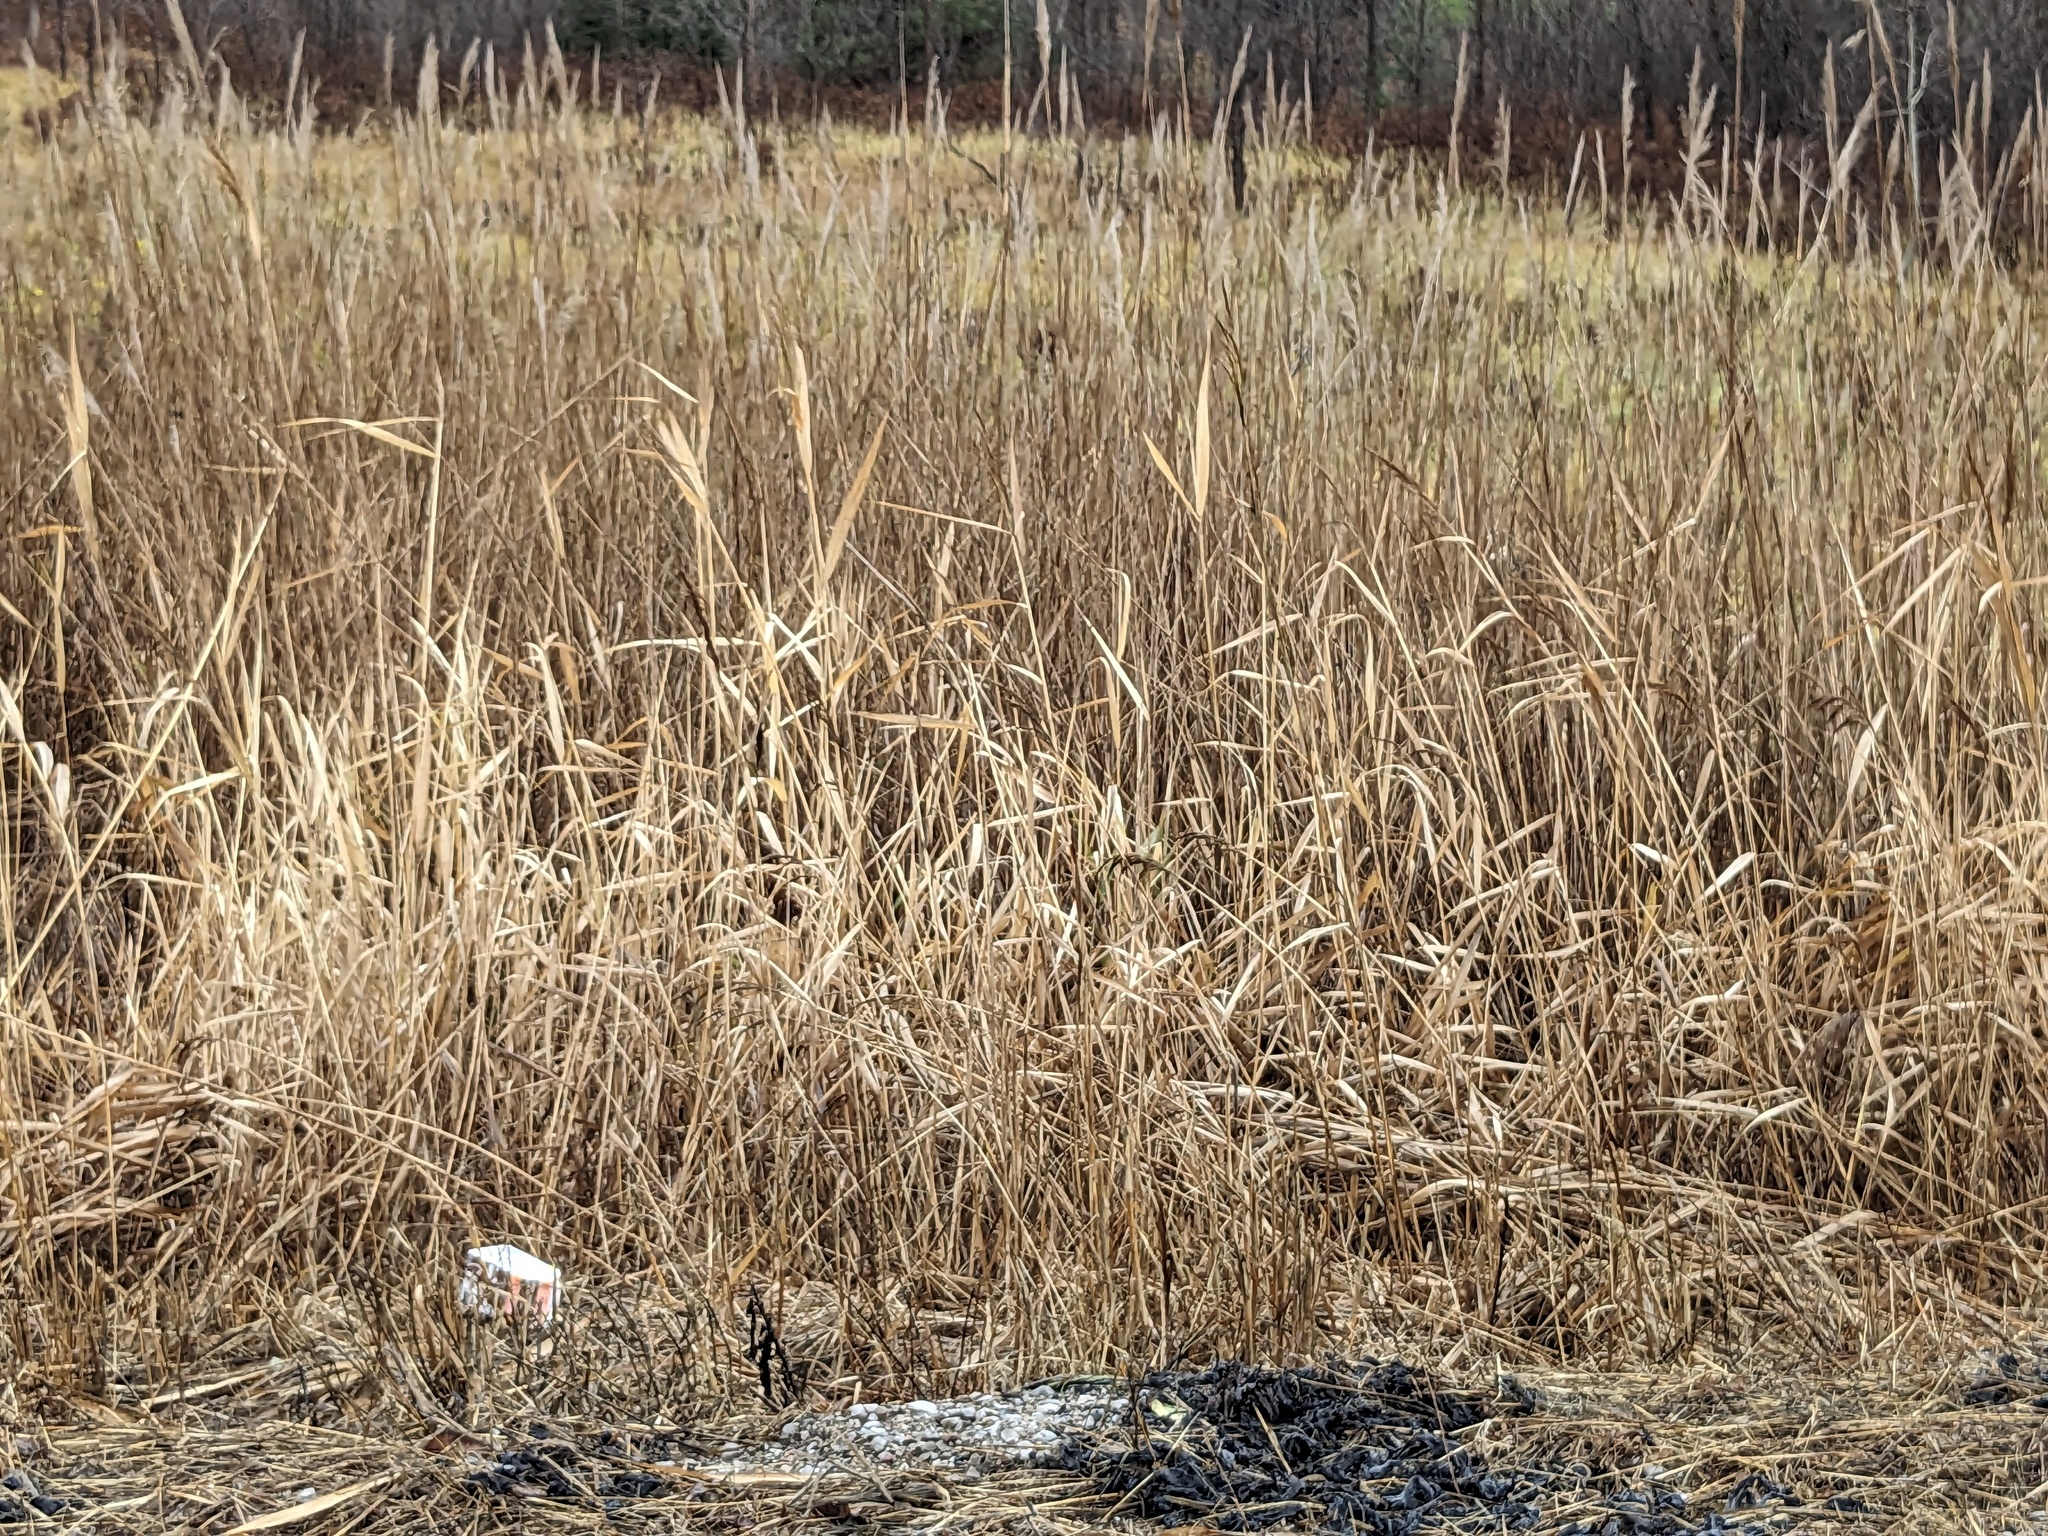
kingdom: Plantae
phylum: Tracheophyta
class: Liliopsida
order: Poales
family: Poaceae
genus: Phragmites
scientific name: Phragmites australis
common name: Common reed
